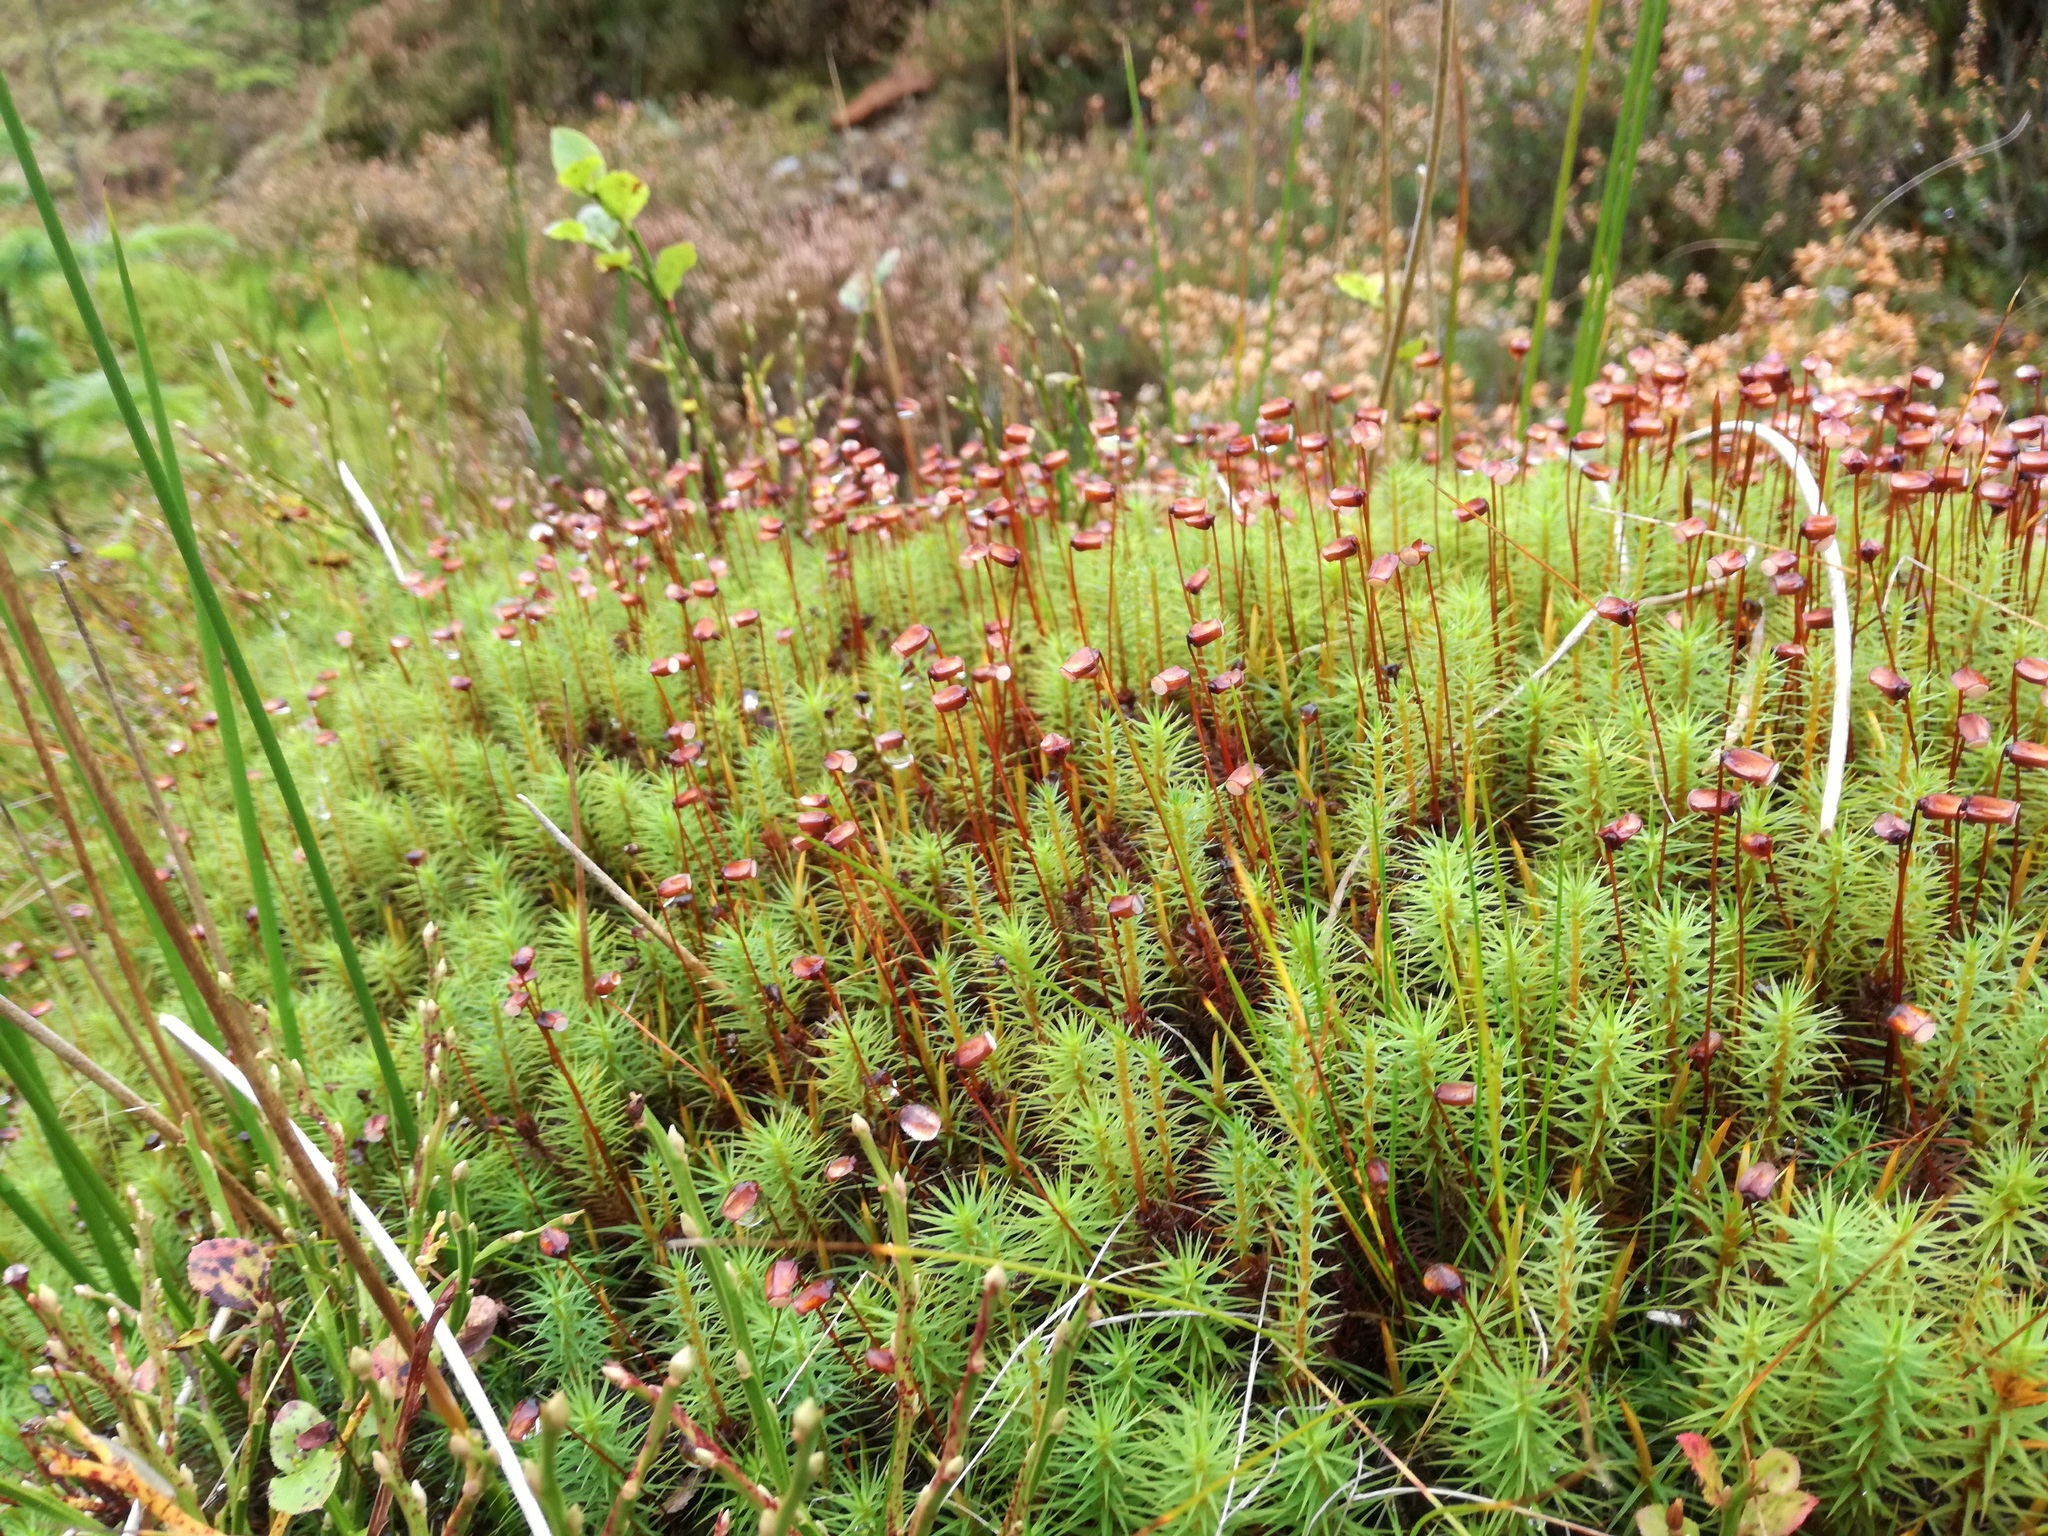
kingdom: Plantae
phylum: Bryophyta
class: Polytrichopsida
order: Polytrichales
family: Polytrichaceae
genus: Polytrichum
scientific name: Polytrichum commune
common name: Common haircap
